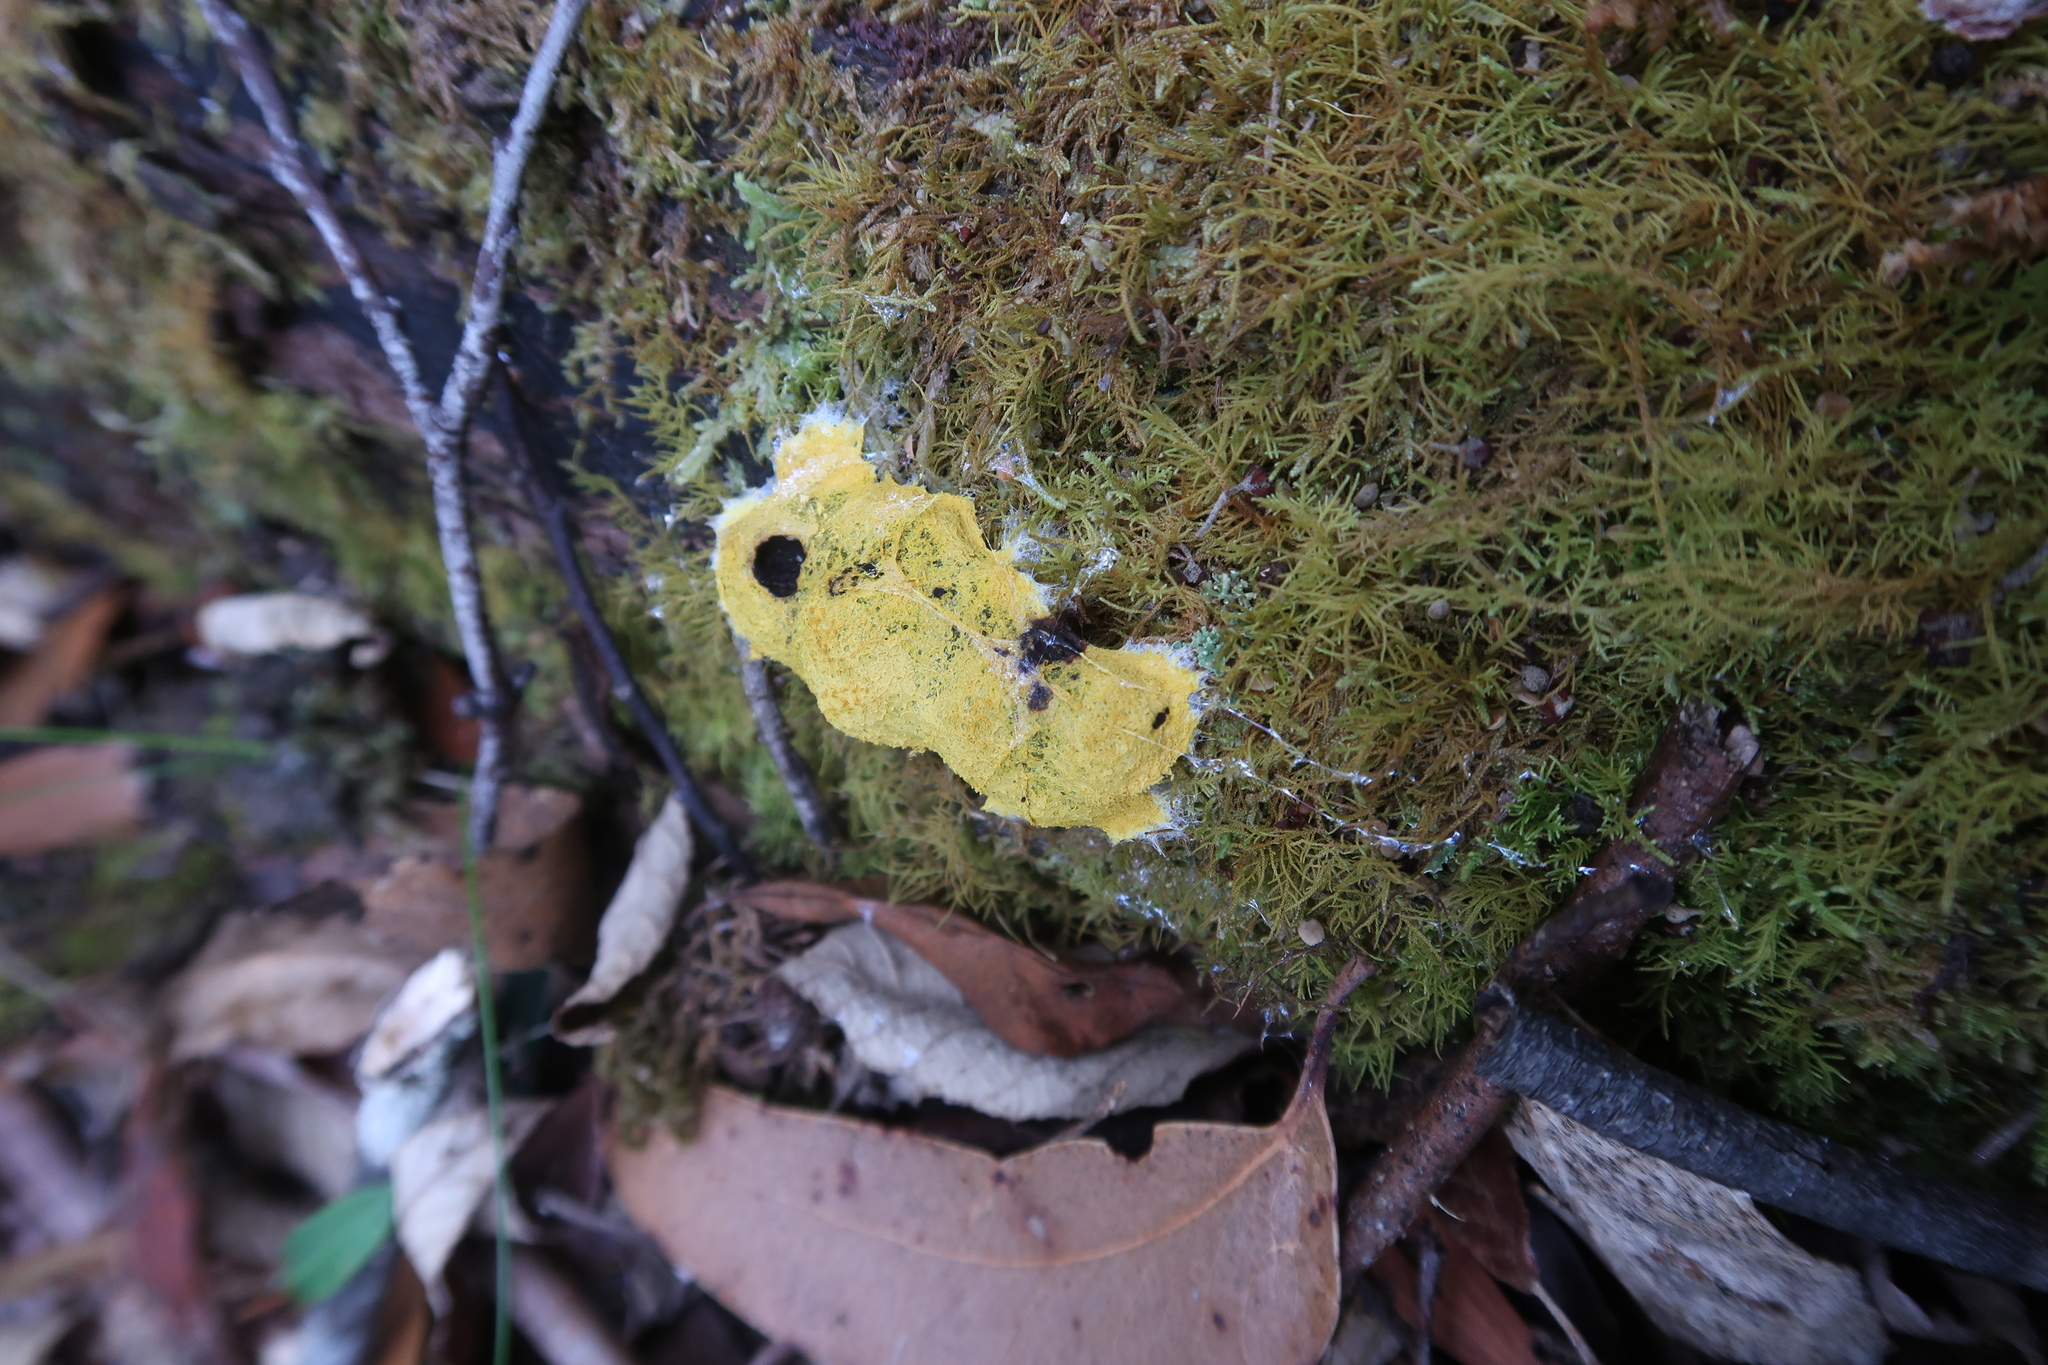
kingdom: Protozoa
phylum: Mycetozoa
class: Myxomycetes
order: Physarales
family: Physaraceae
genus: Fuligo
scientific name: Fuligo septica
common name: Dog vomit slime mold
